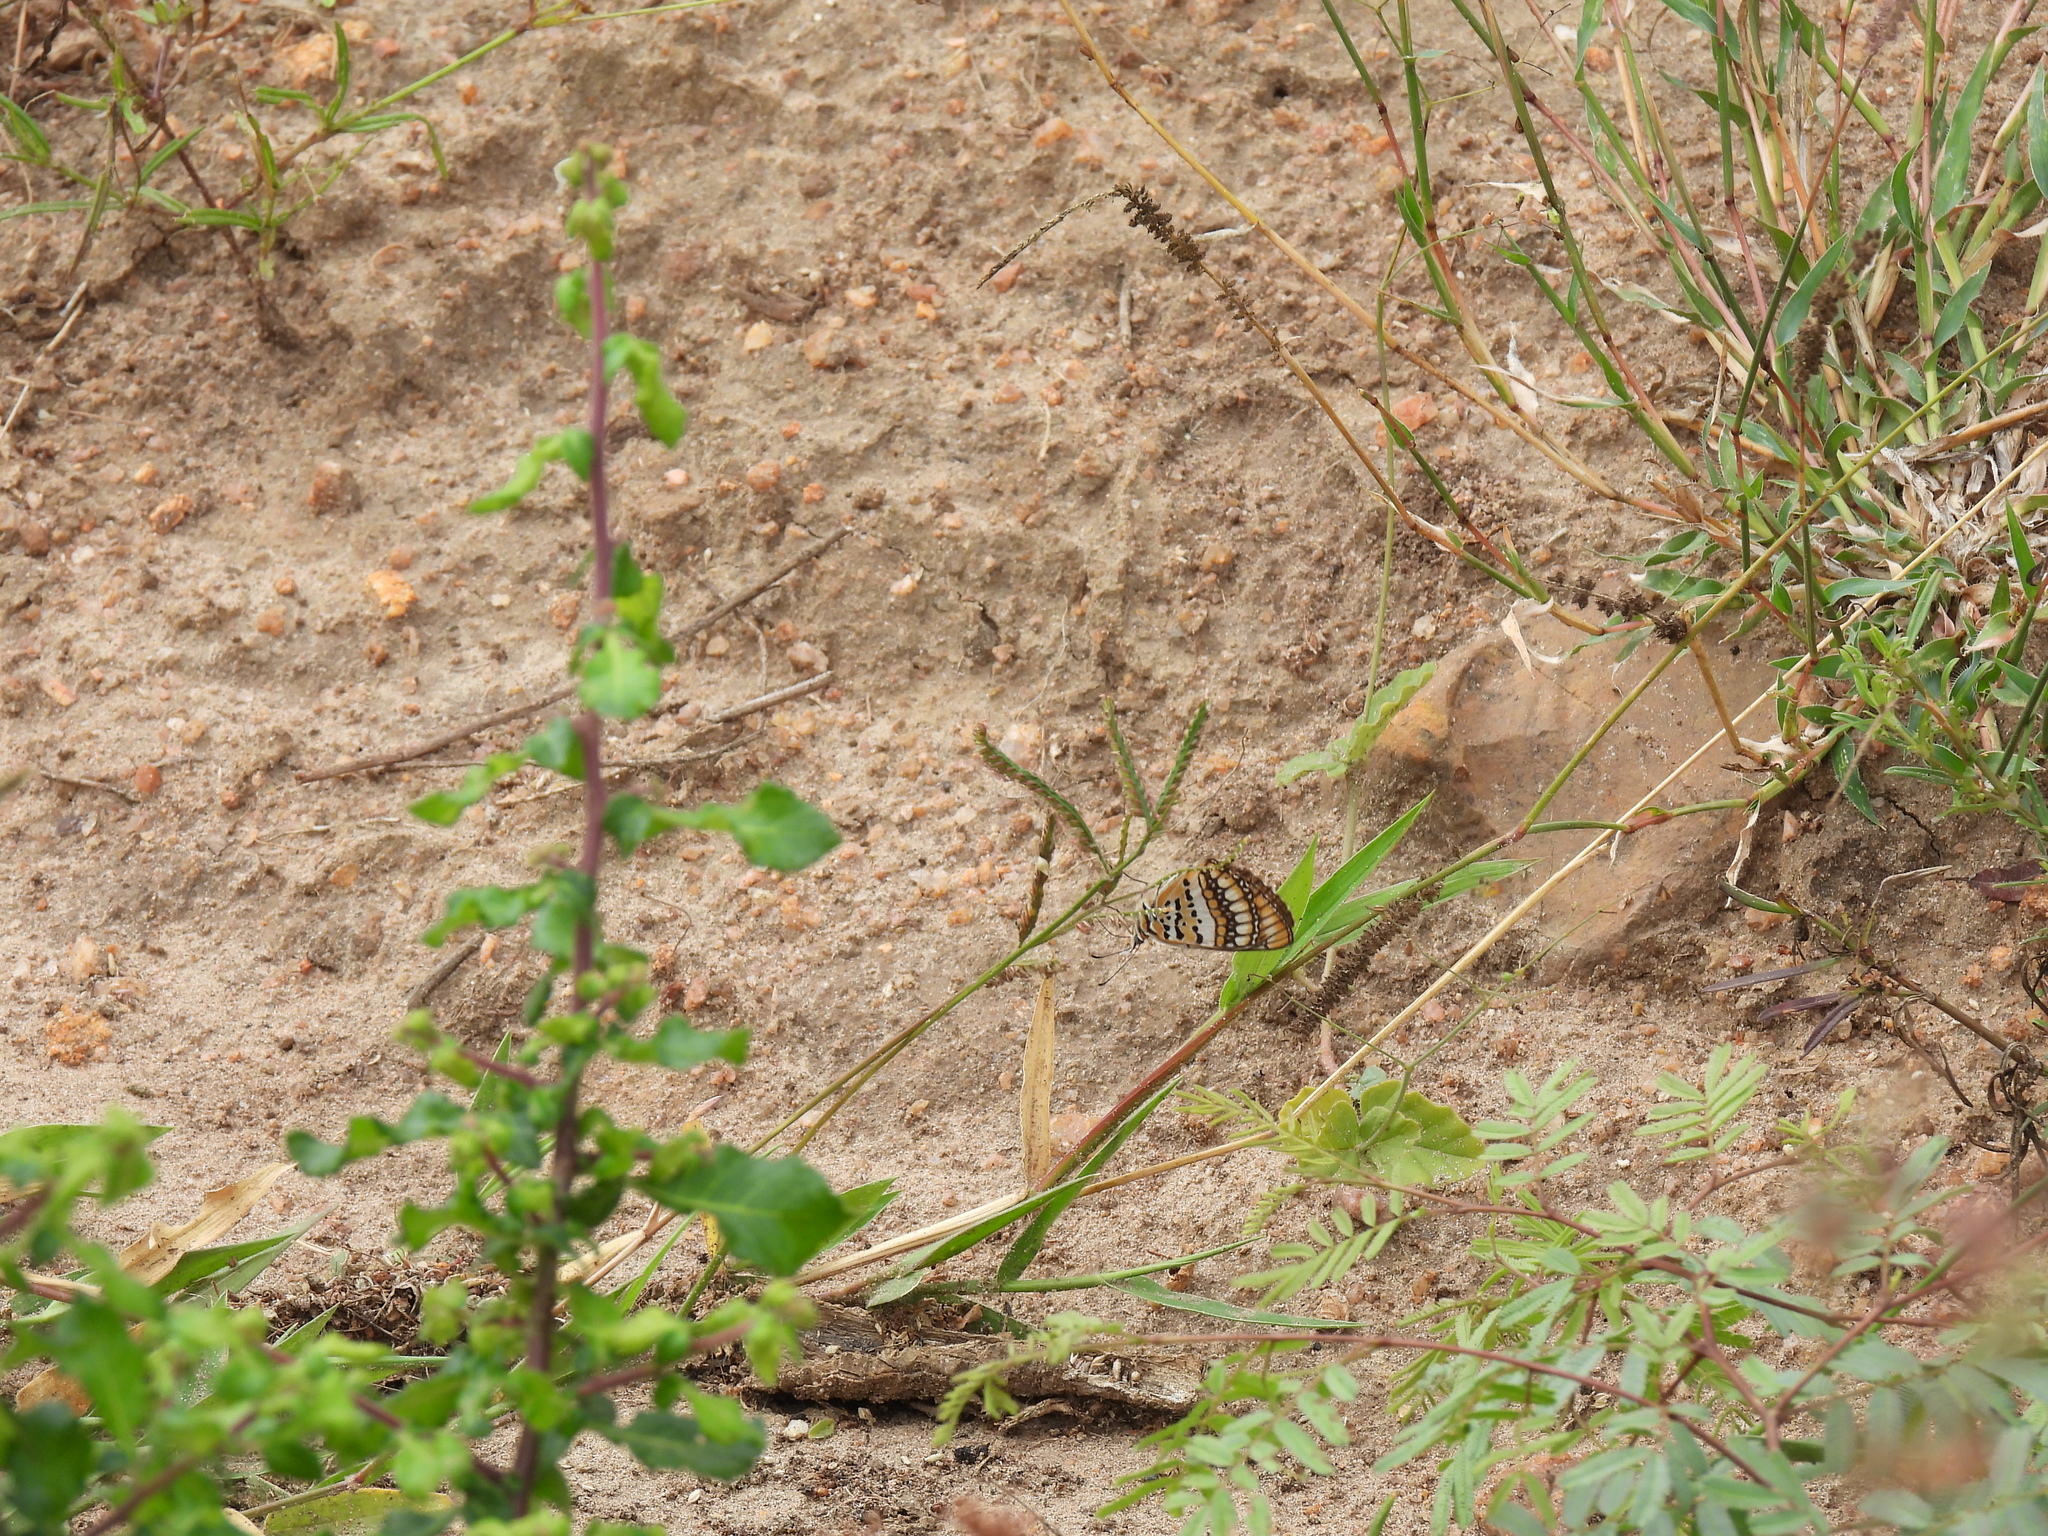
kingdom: Animalia
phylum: Arthropoda
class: Insecta
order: Lepidoptera
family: Nymphalidae
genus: Byblia
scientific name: Byblia ilithyia
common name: Spotted joker
